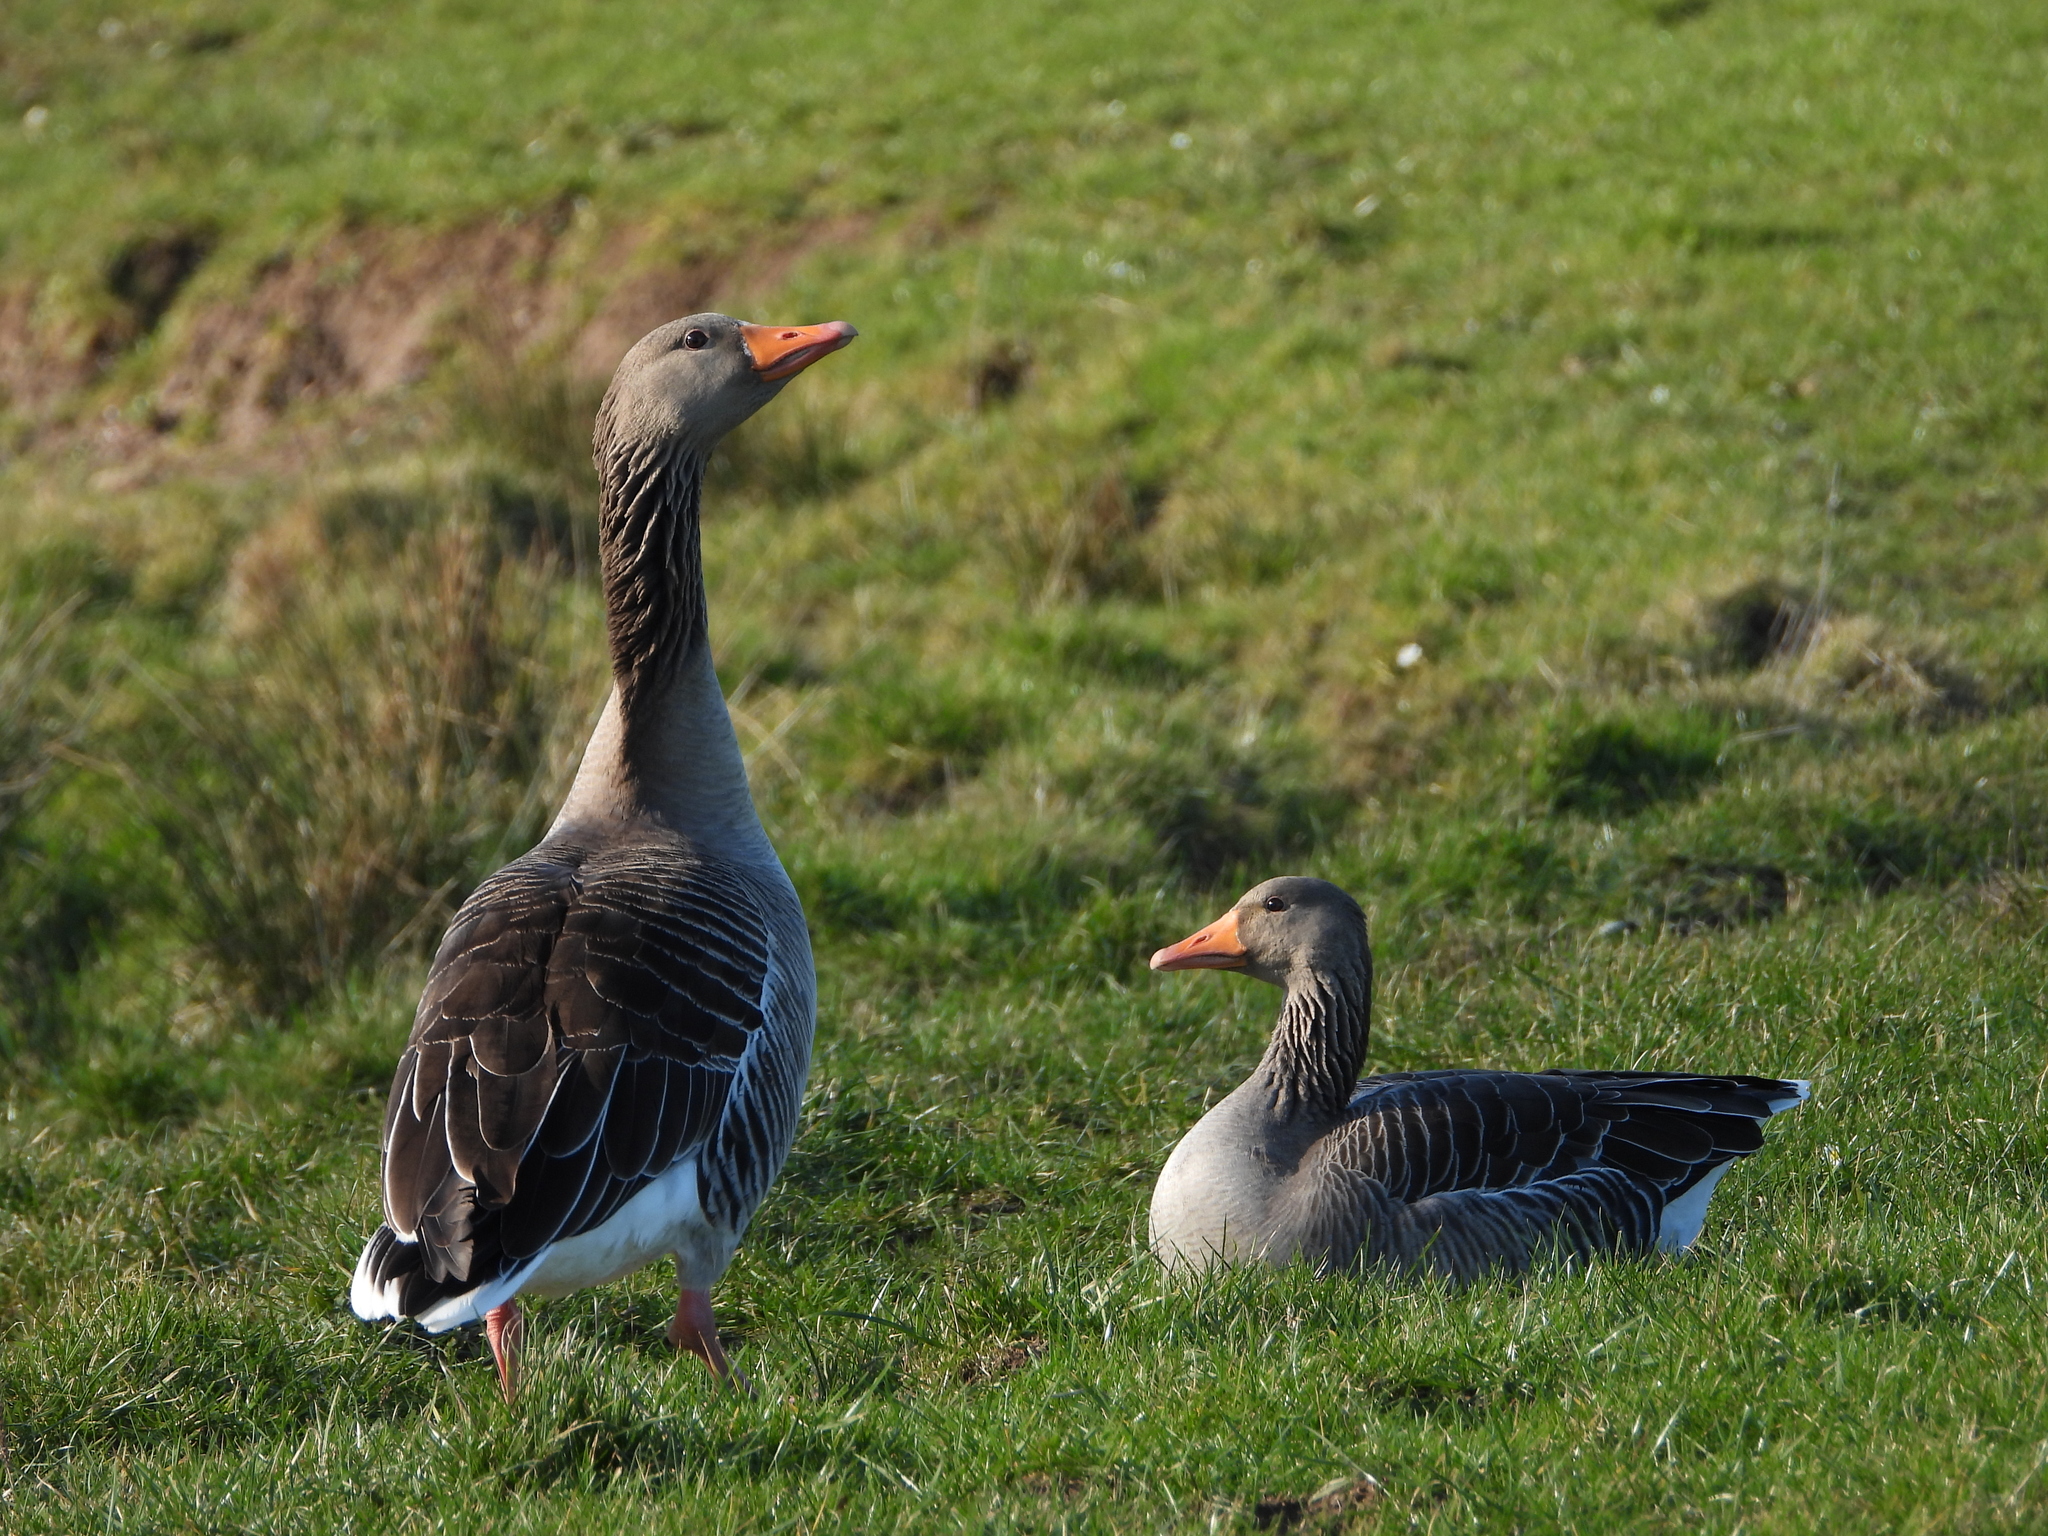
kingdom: Animalia
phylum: Chordata
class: Aves
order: Anseriformes
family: Anatidae
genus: Anser
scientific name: Anser anser
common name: Greylag goose
